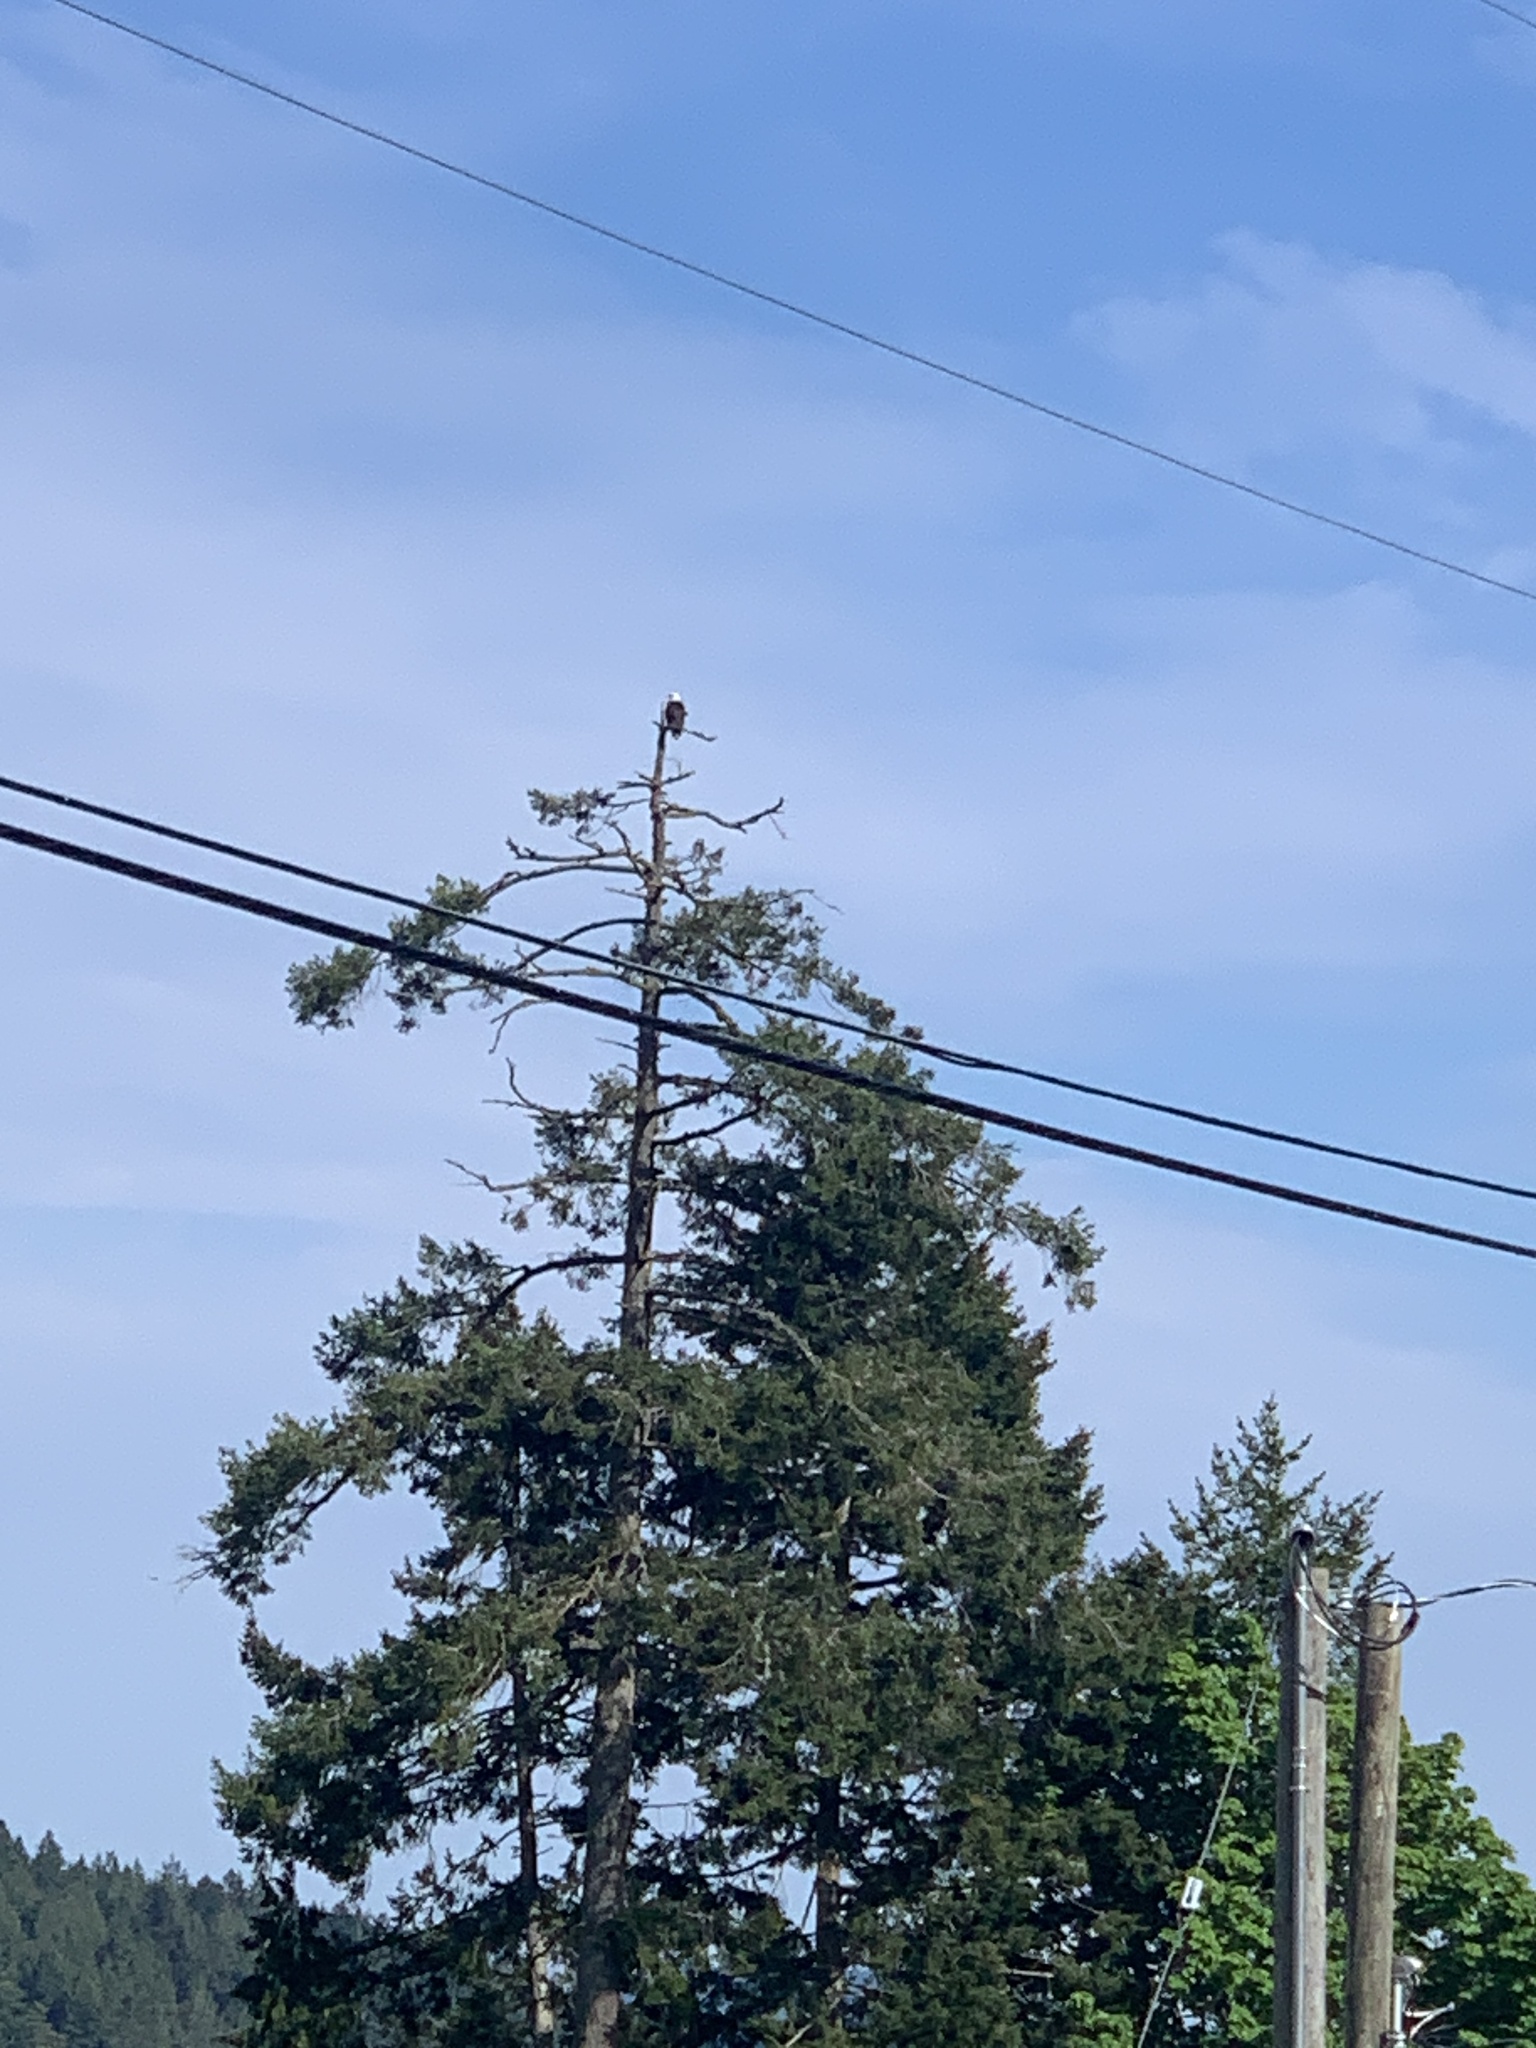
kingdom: Animalia
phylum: Chordata
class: Aves
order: Accipitriformes
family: Accipitridae
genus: Haliaeetus
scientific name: Haliaeetus leucocephalus
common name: Bald eagle
